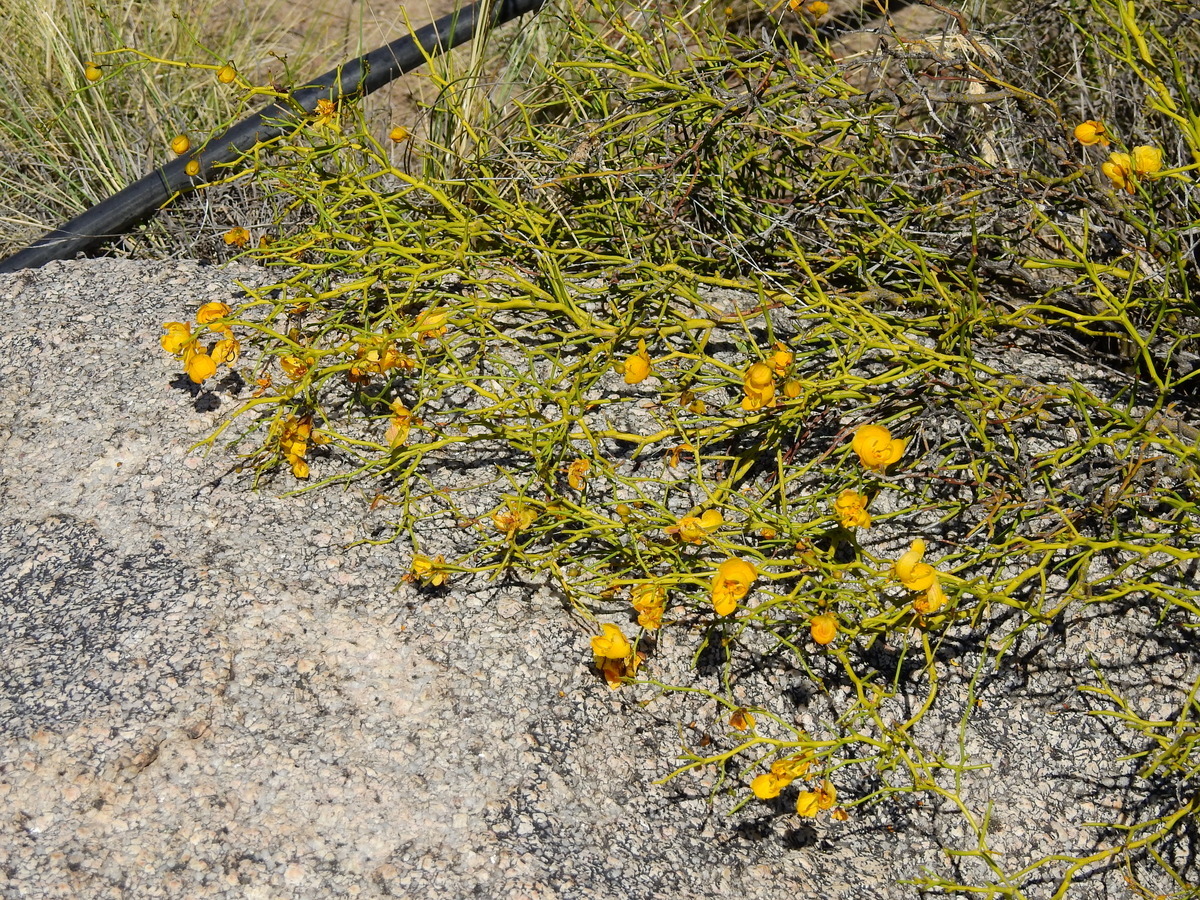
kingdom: Plantae
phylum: Tracheophyta
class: Magnoliopsida
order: Fabales
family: Fabaceae
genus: Senna
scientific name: Senna aphylla
